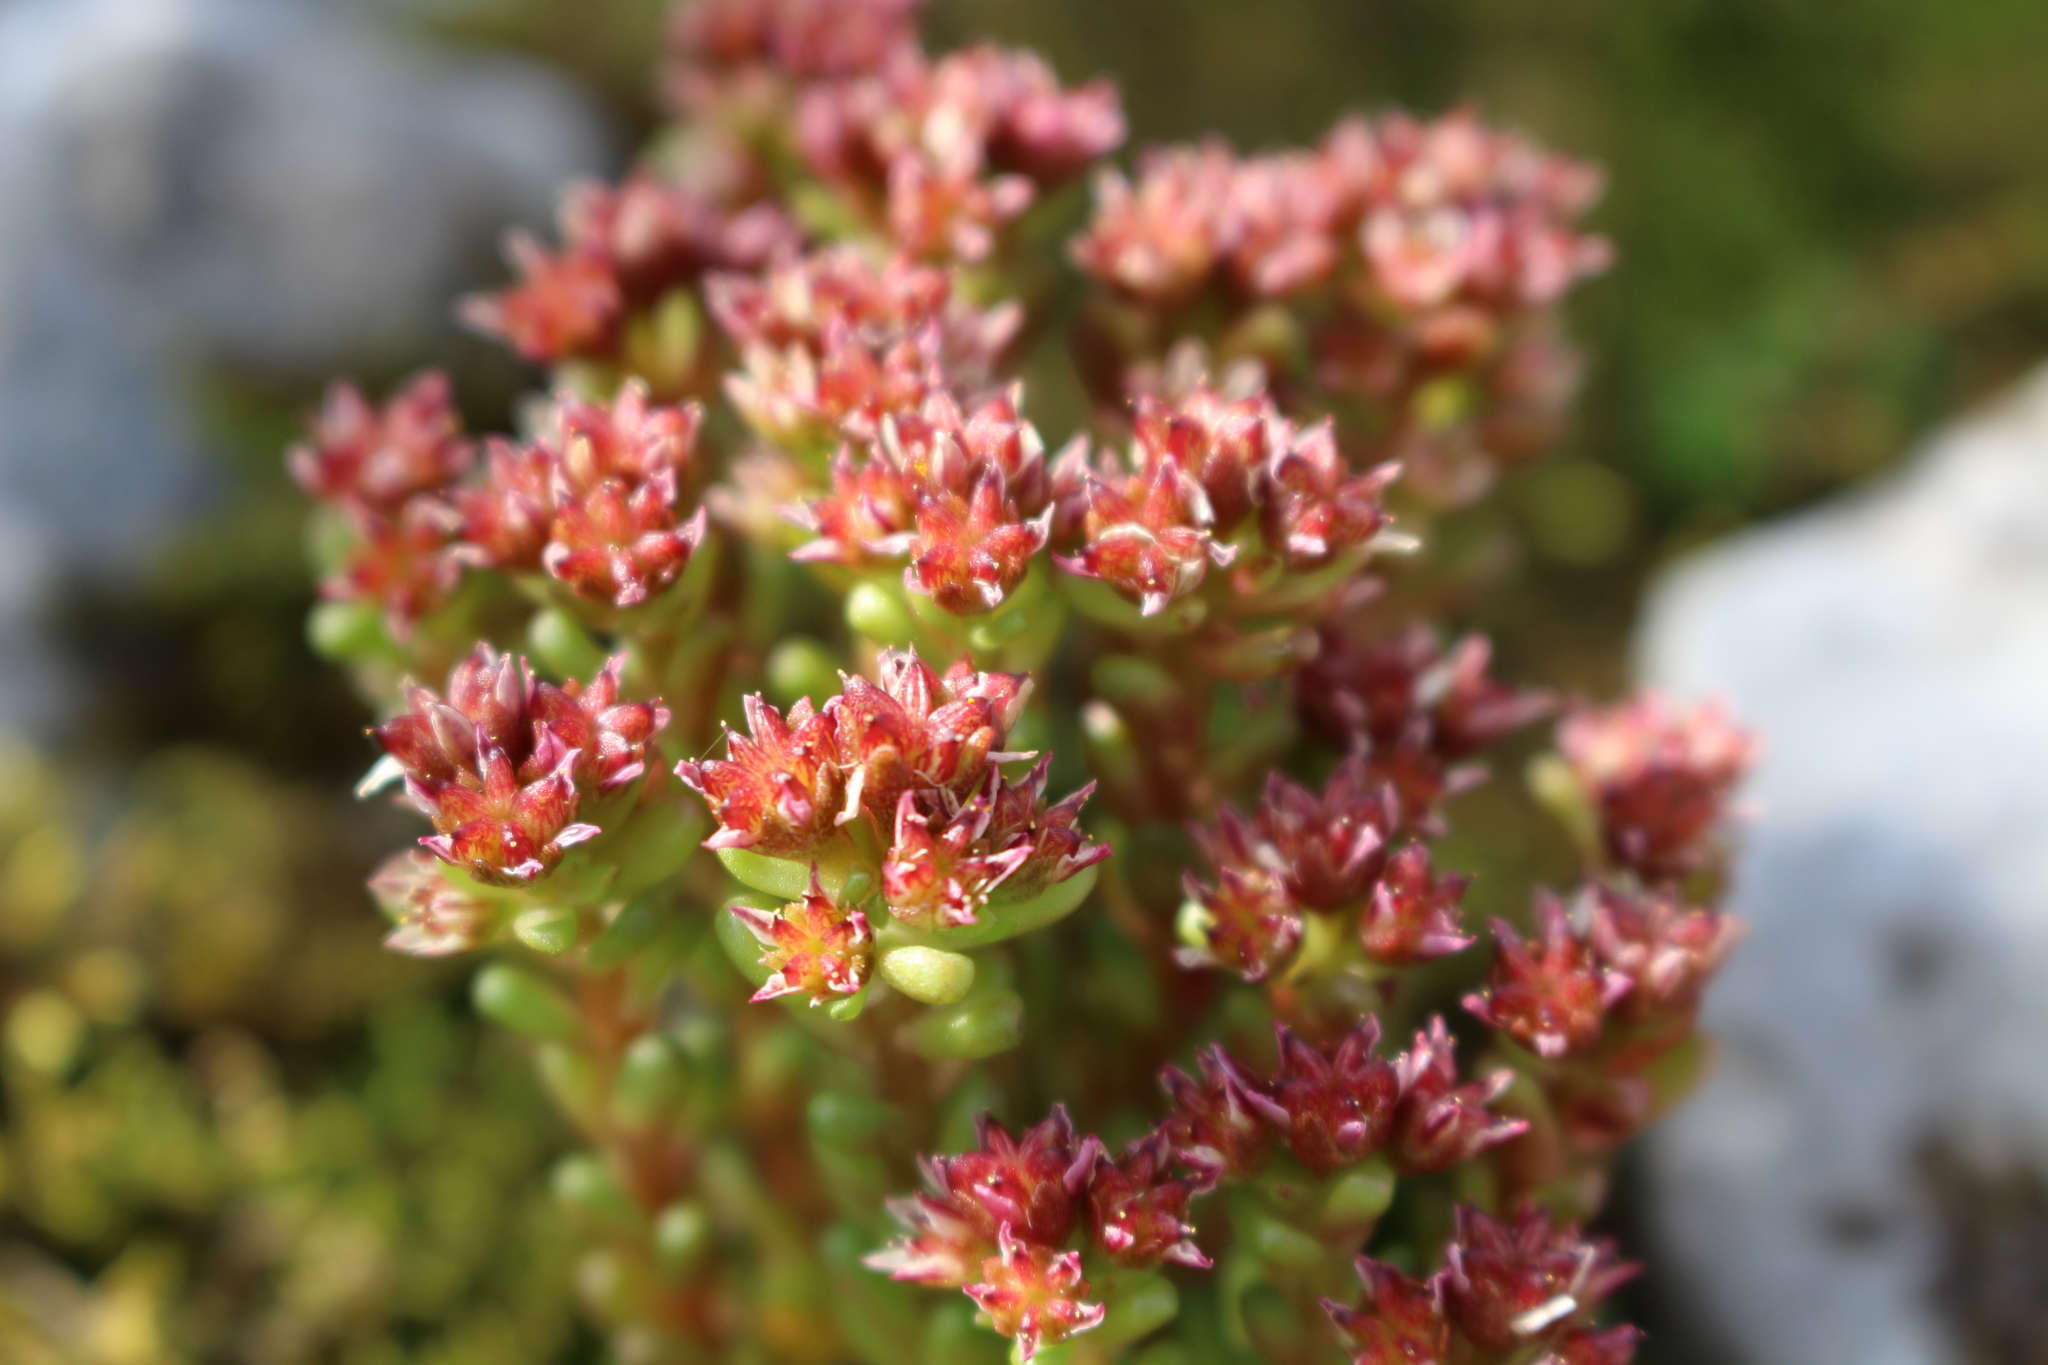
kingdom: Plantae
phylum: Tracheophyta
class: Magnoliopsida
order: Saxifragales
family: Crassulaceae
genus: Sedum
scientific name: Sedum atratum
